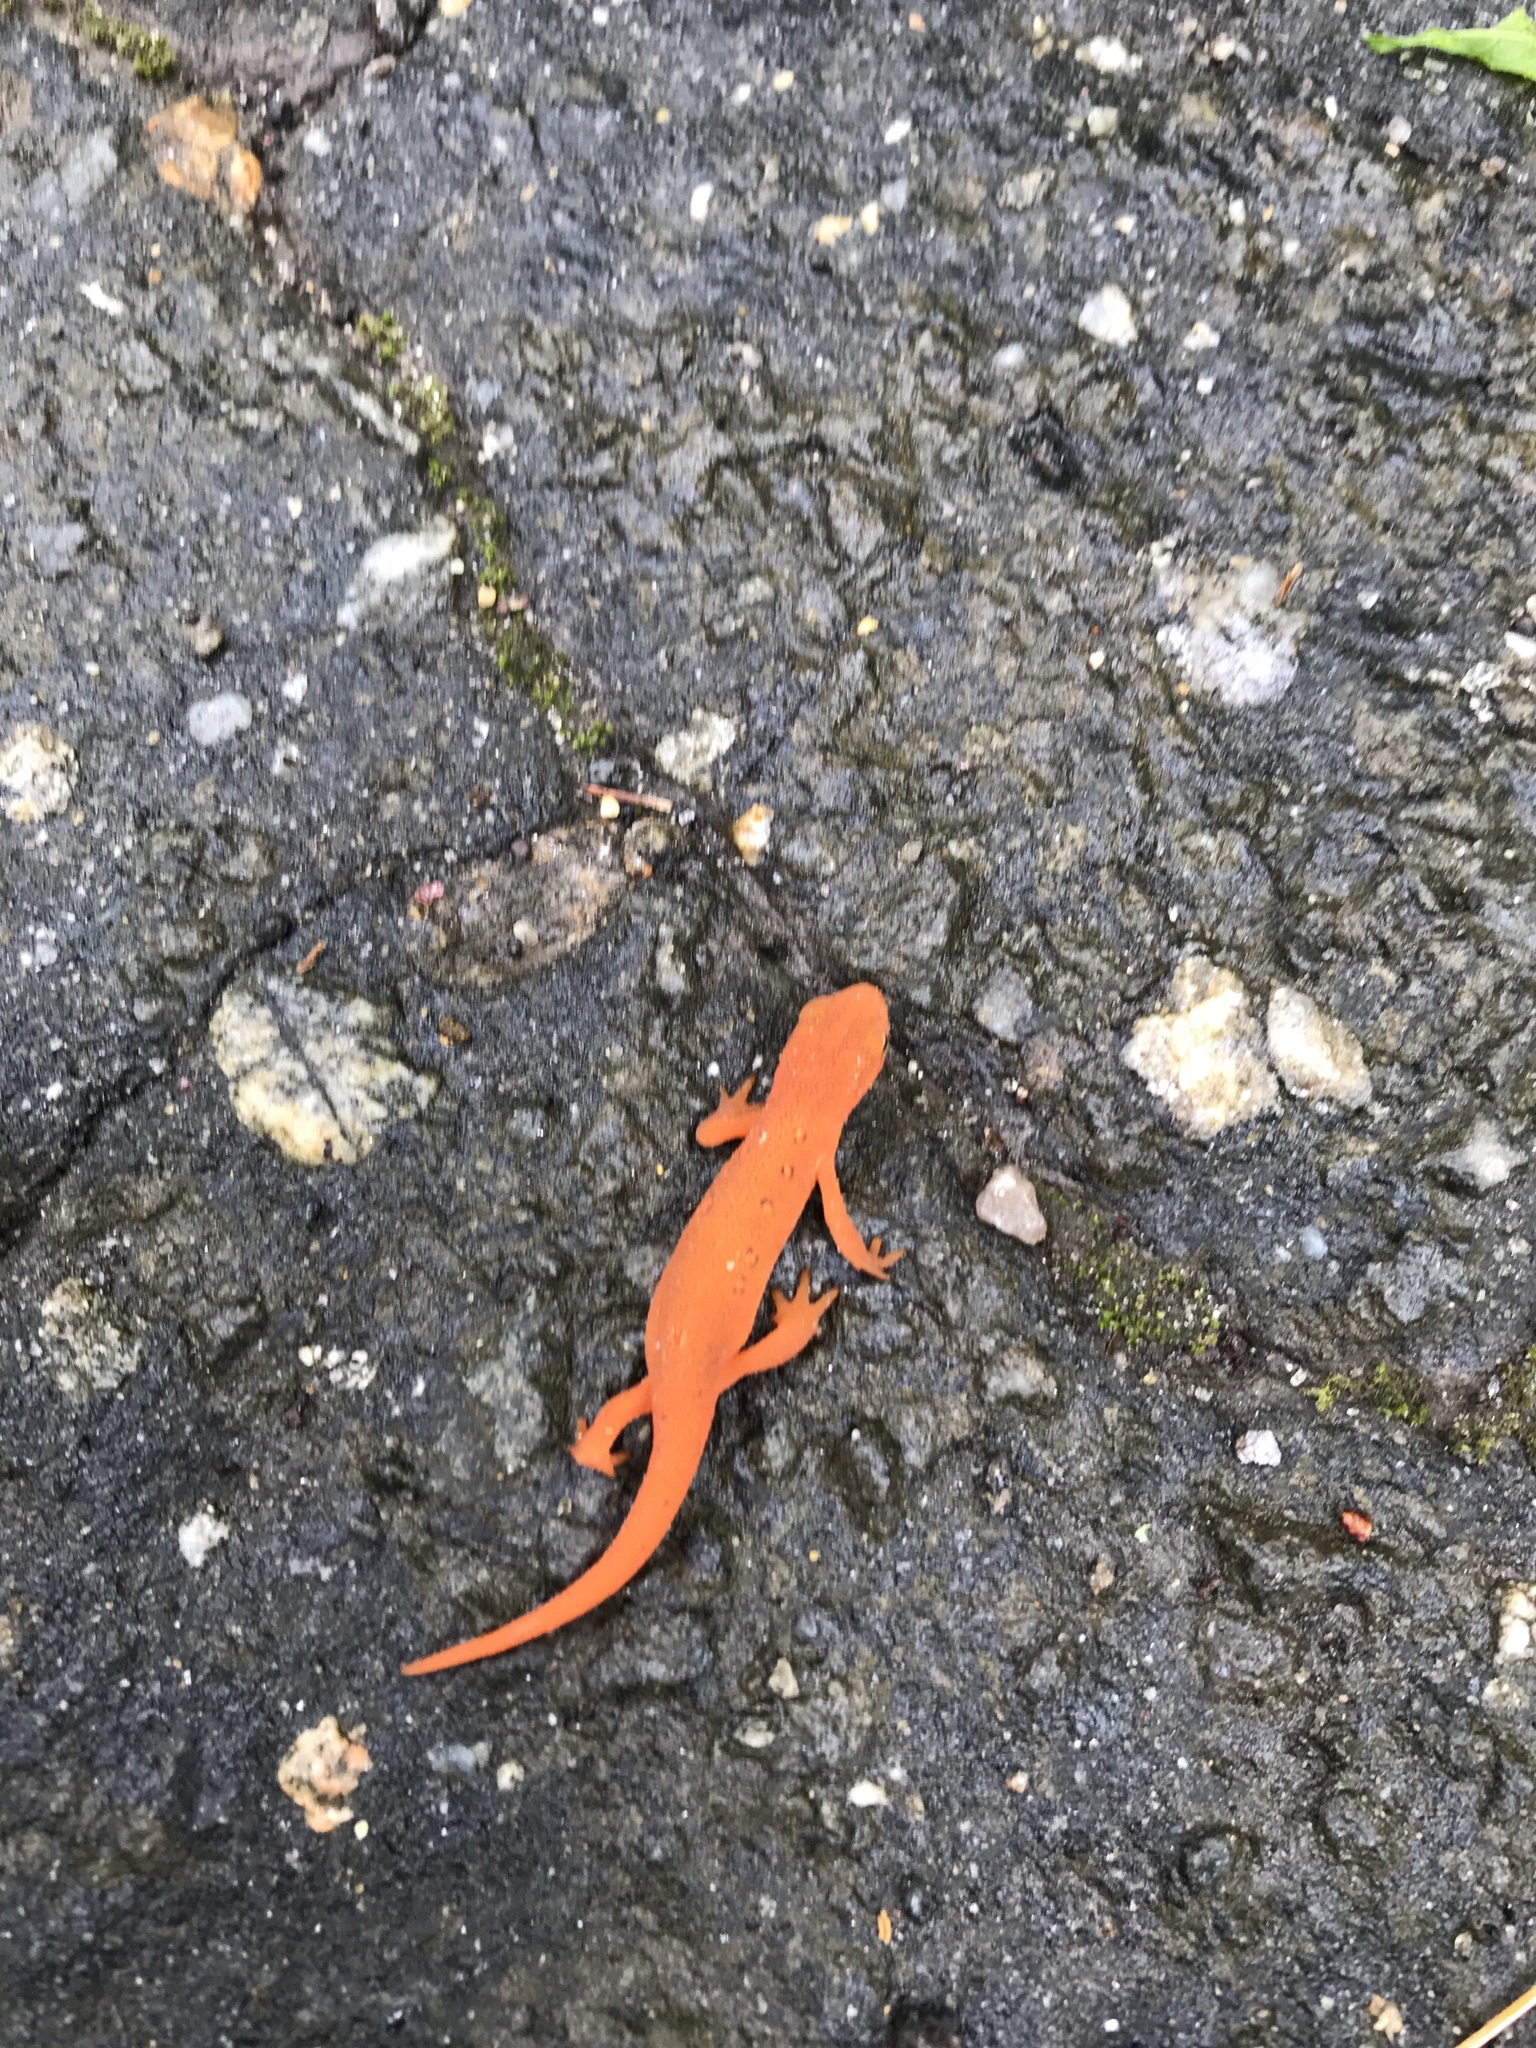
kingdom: Animalia
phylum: Chordata
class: Amphibia
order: Caudata
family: Salamandridae
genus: Notophthalmus
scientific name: Notophthalmus viridescens
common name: Eastern newt
